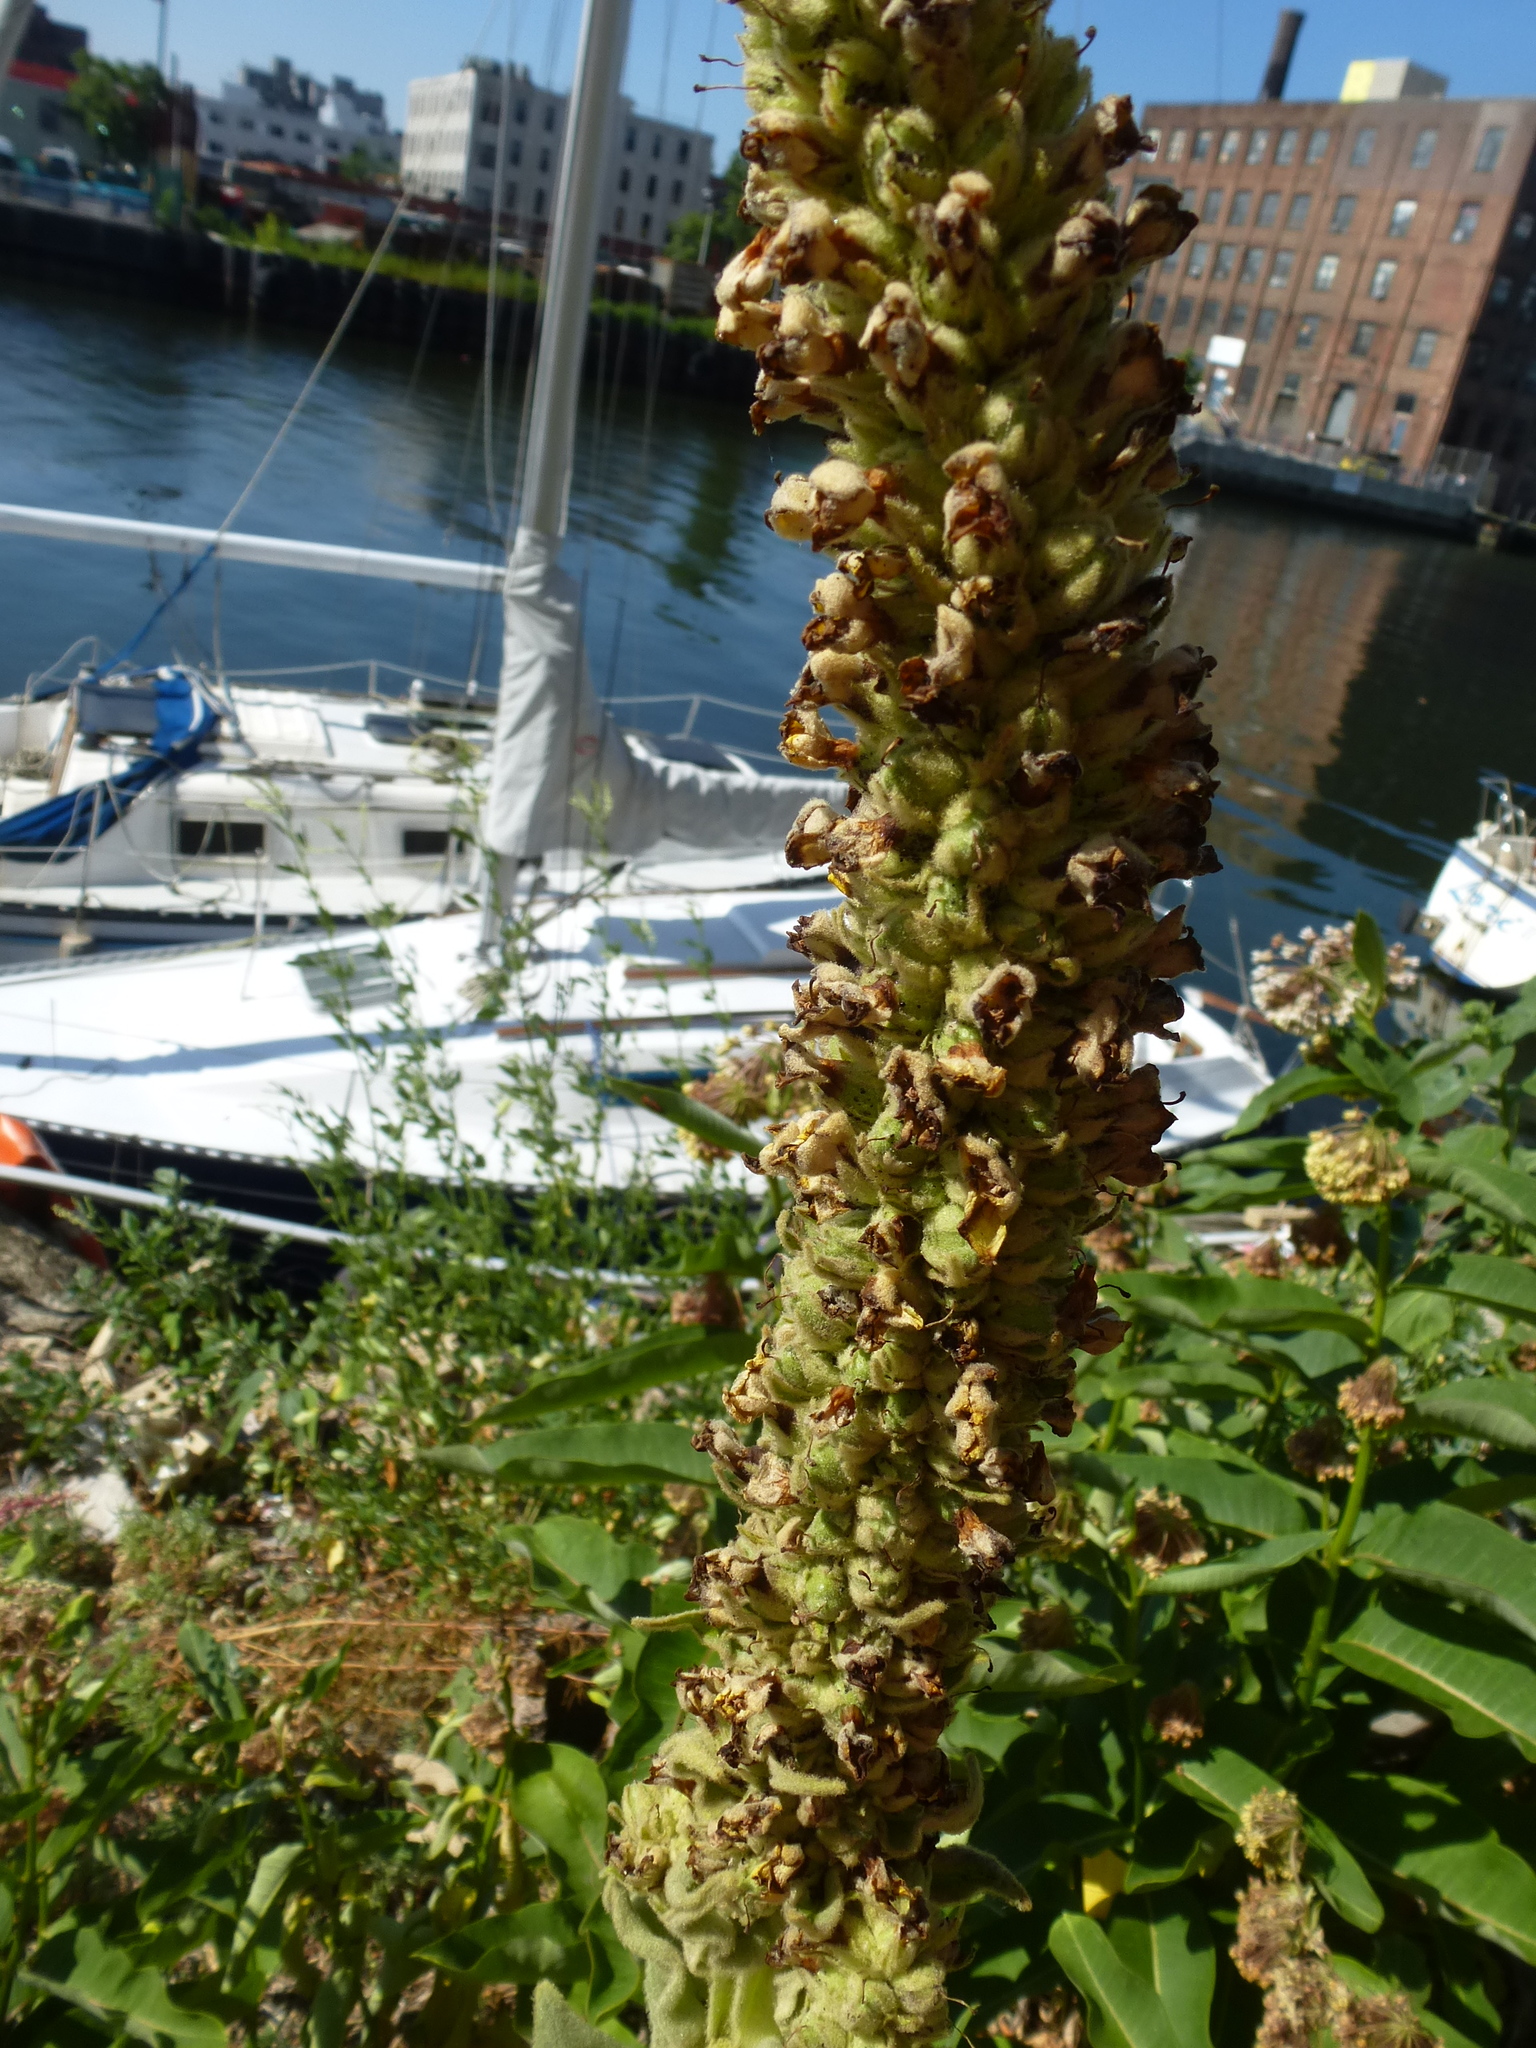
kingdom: Plantae
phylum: Tracheophyta
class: Magnoliopsida
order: Lamiales
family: Scrophulariaceae
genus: Verbascum
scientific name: Verbascum thapsus
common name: Common mullein
